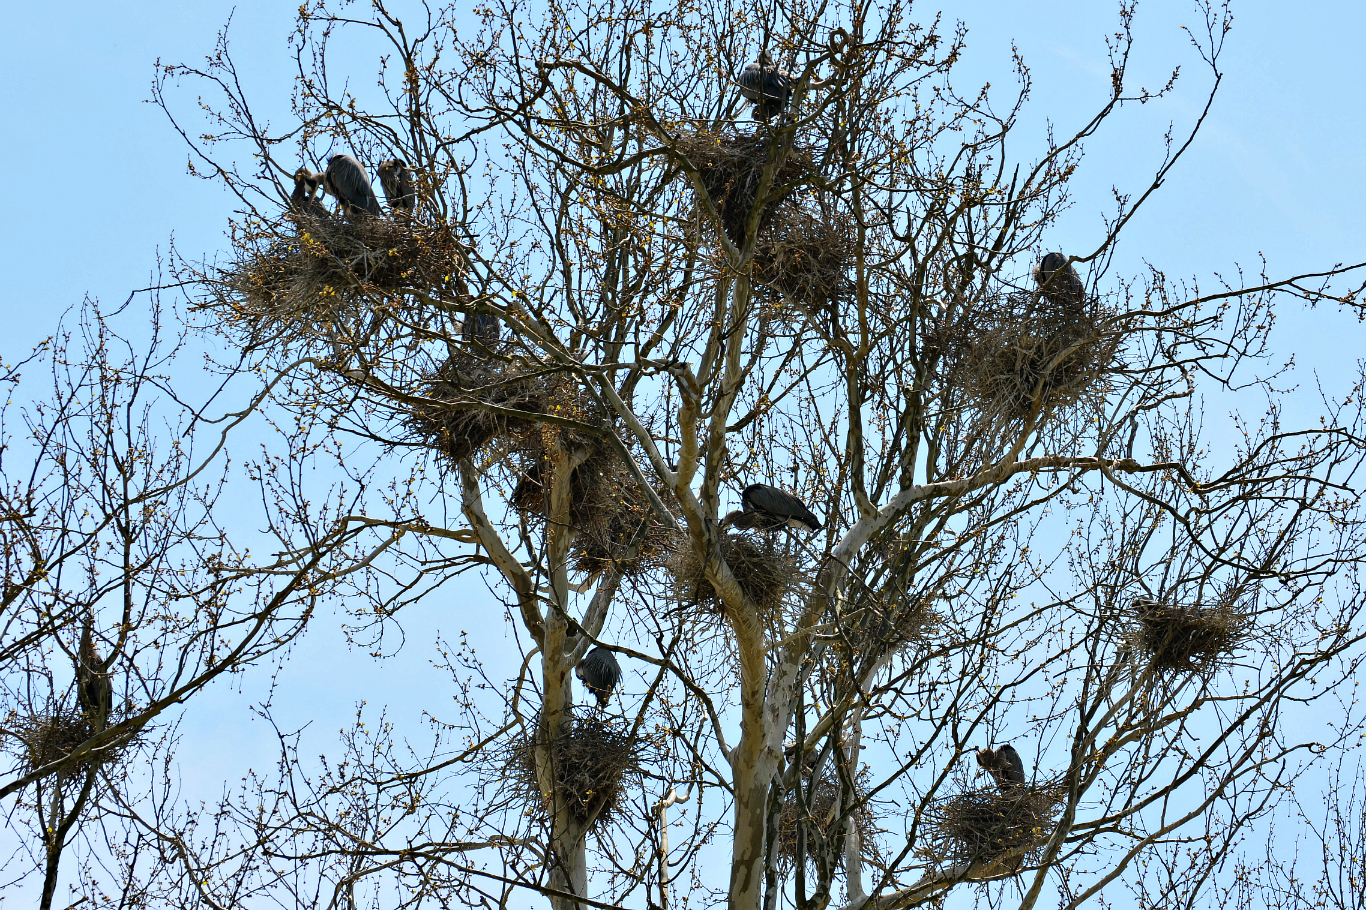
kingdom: Animalia
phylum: Chordata
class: Aves
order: Pelecaniformes
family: Ardeidae
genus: Ardea
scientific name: Ardea herodias
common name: Great blue heron
